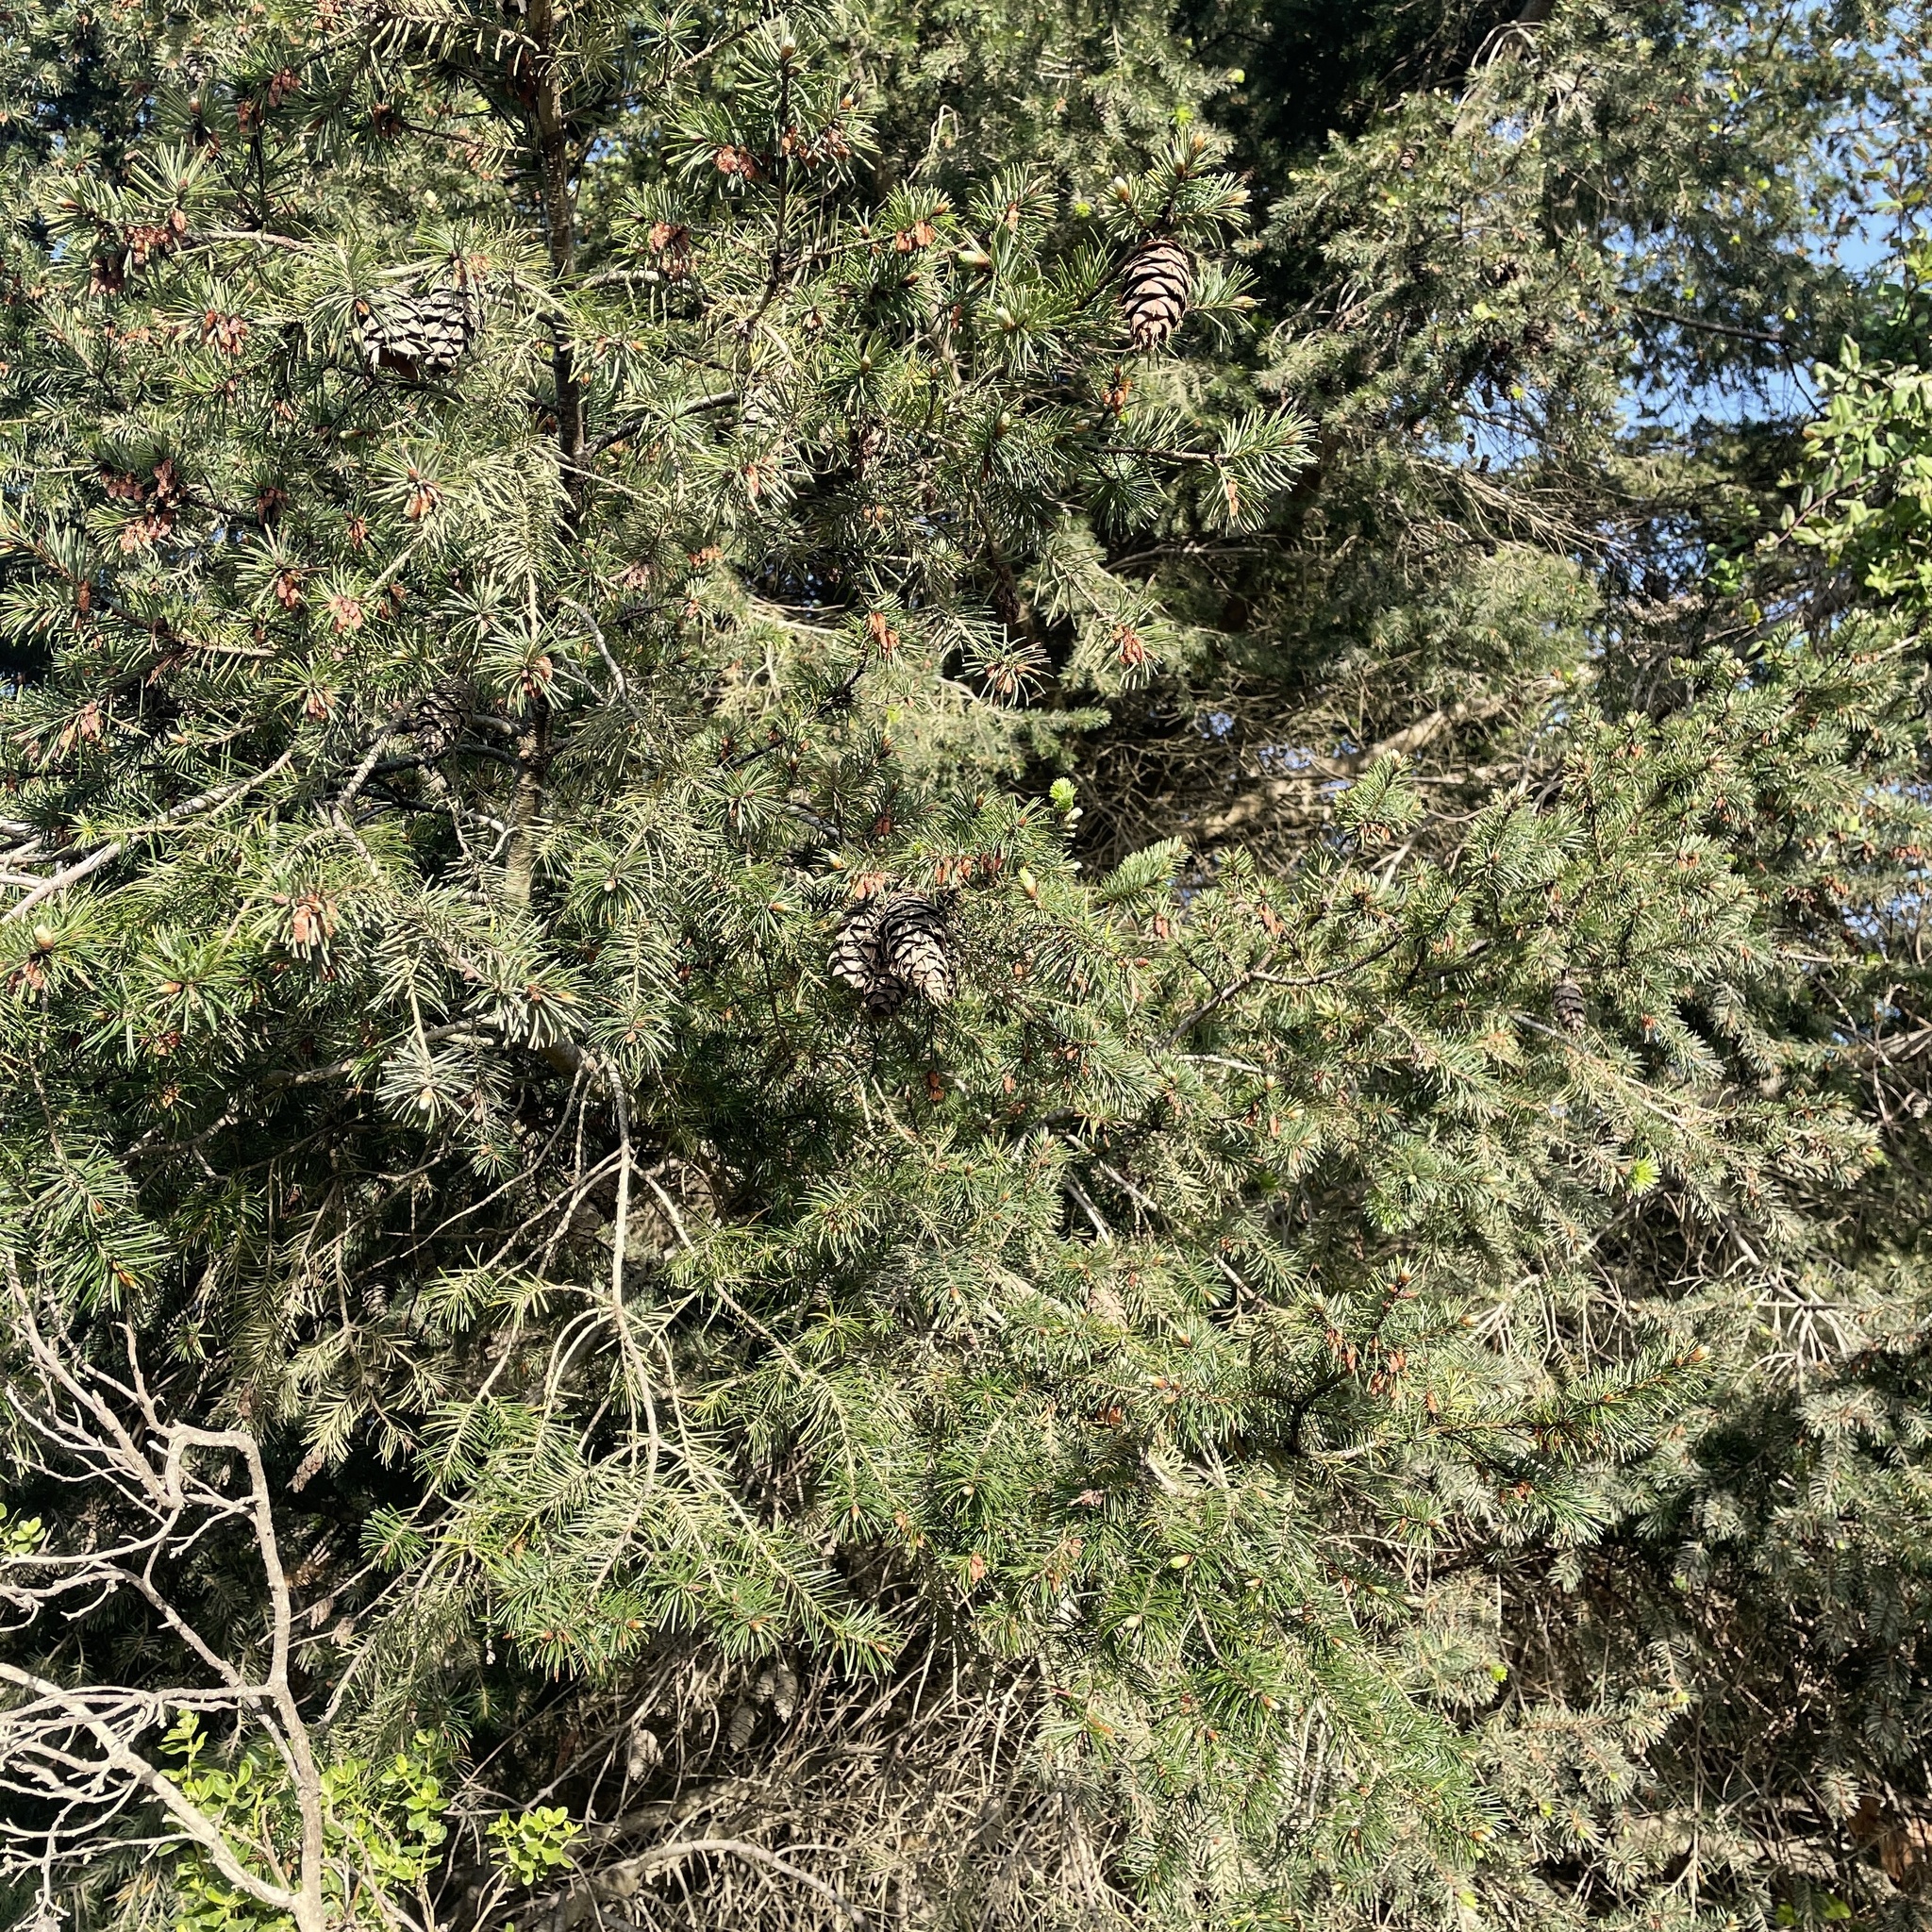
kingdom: Plantae
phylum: Tracheophyta
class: Pinopsida
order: Pinales
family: Pinaceae
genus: Pseudotsuga
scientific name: Pseudotsuga menziesii
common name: Douglas fir
